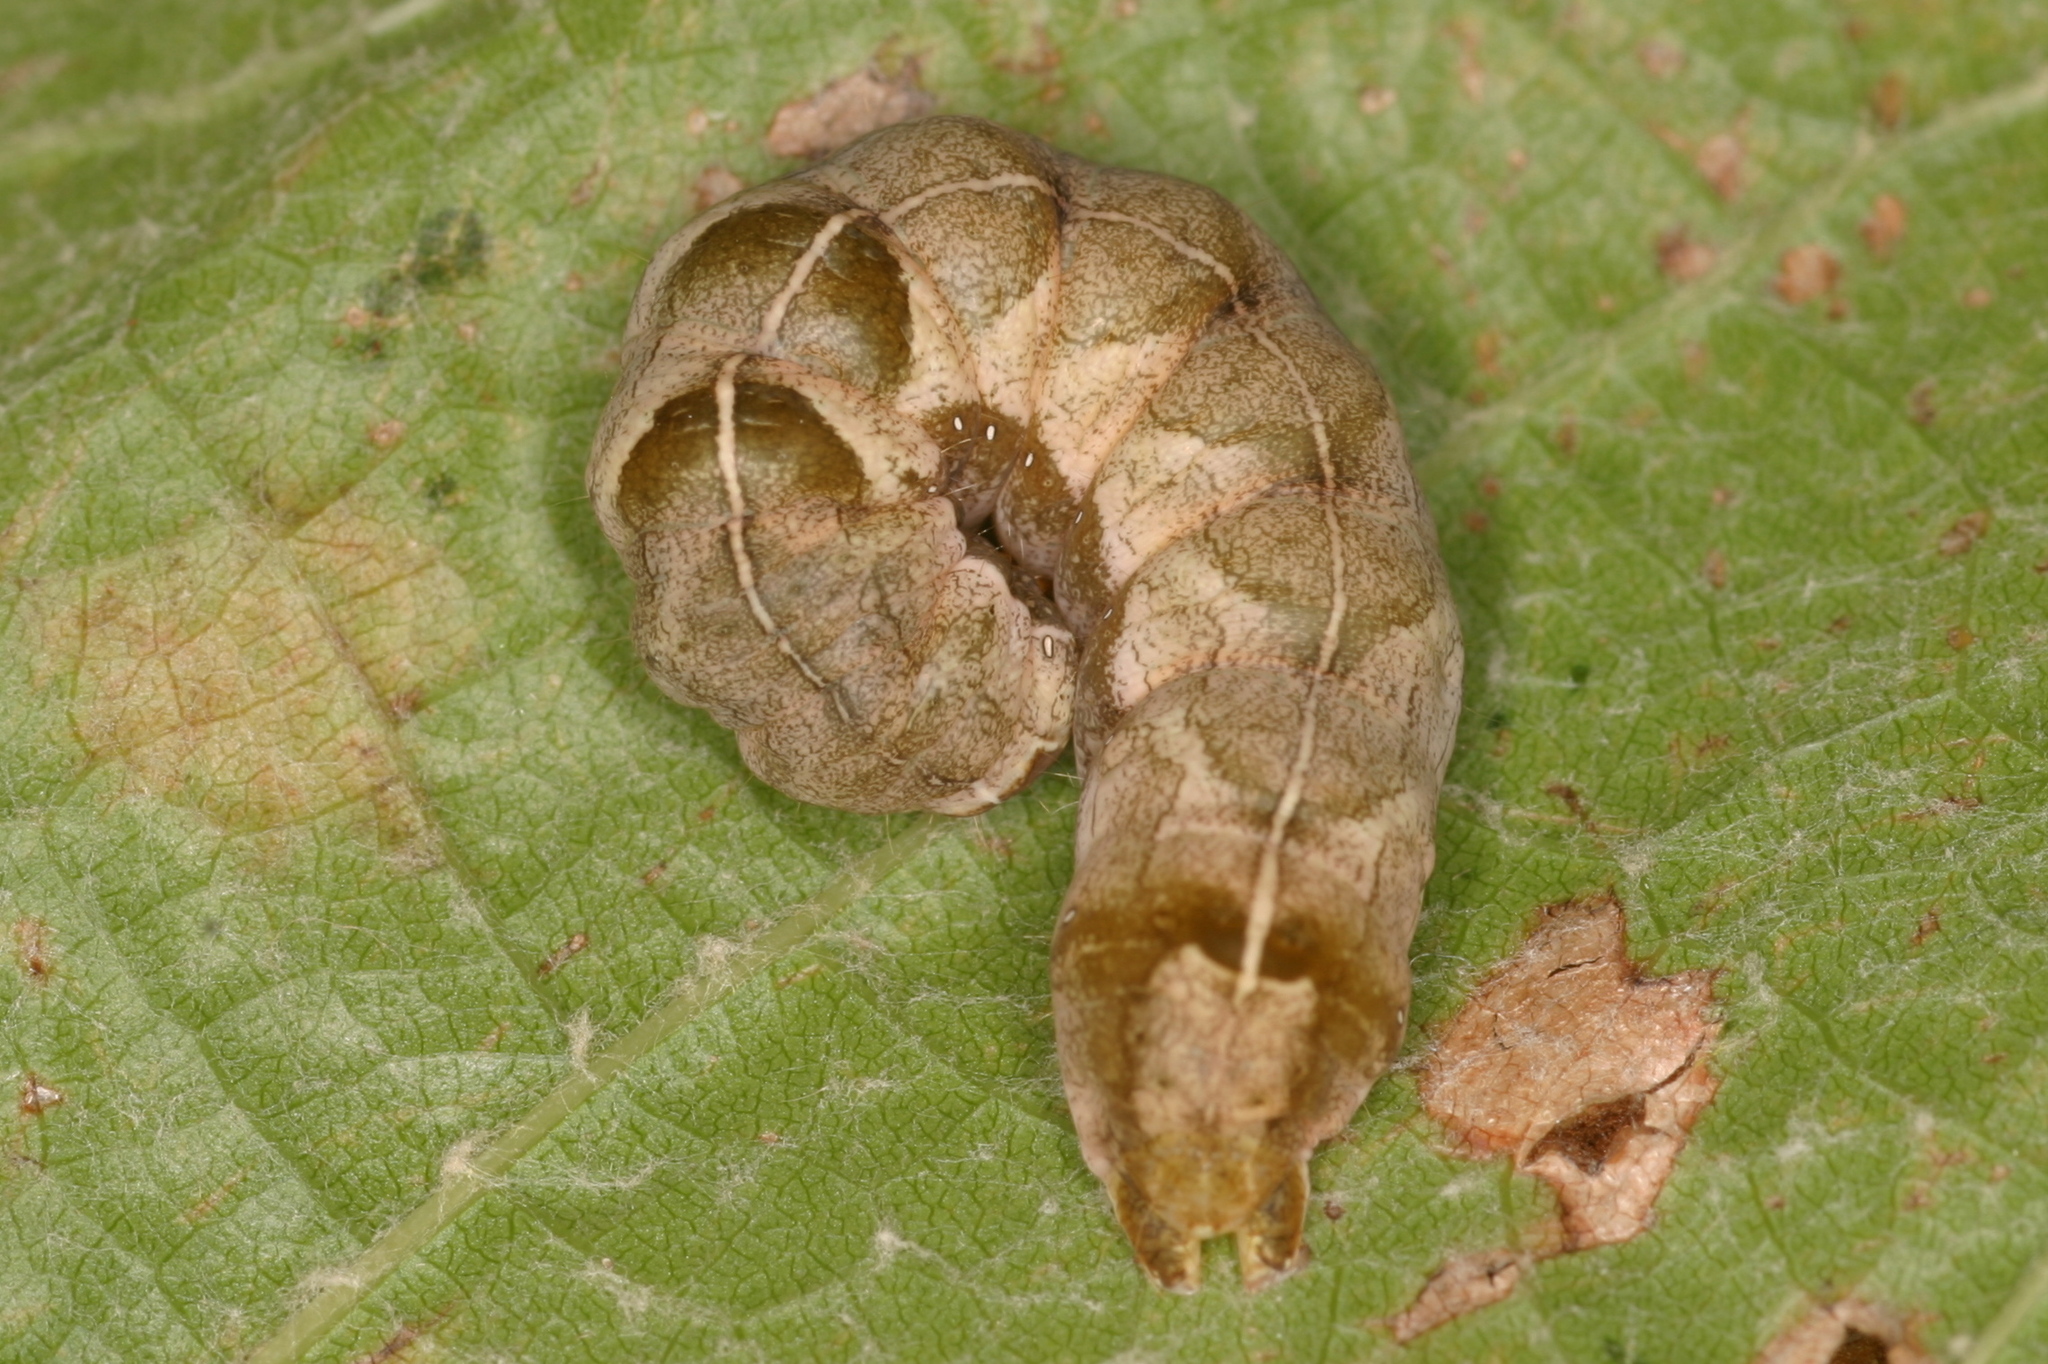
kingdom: Animalia
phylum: Arthropoda
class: Insecta
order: Lepidoptera
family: Noctuidae
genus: Melanchra
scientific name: Melanchra persicariae
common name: Dot moth
